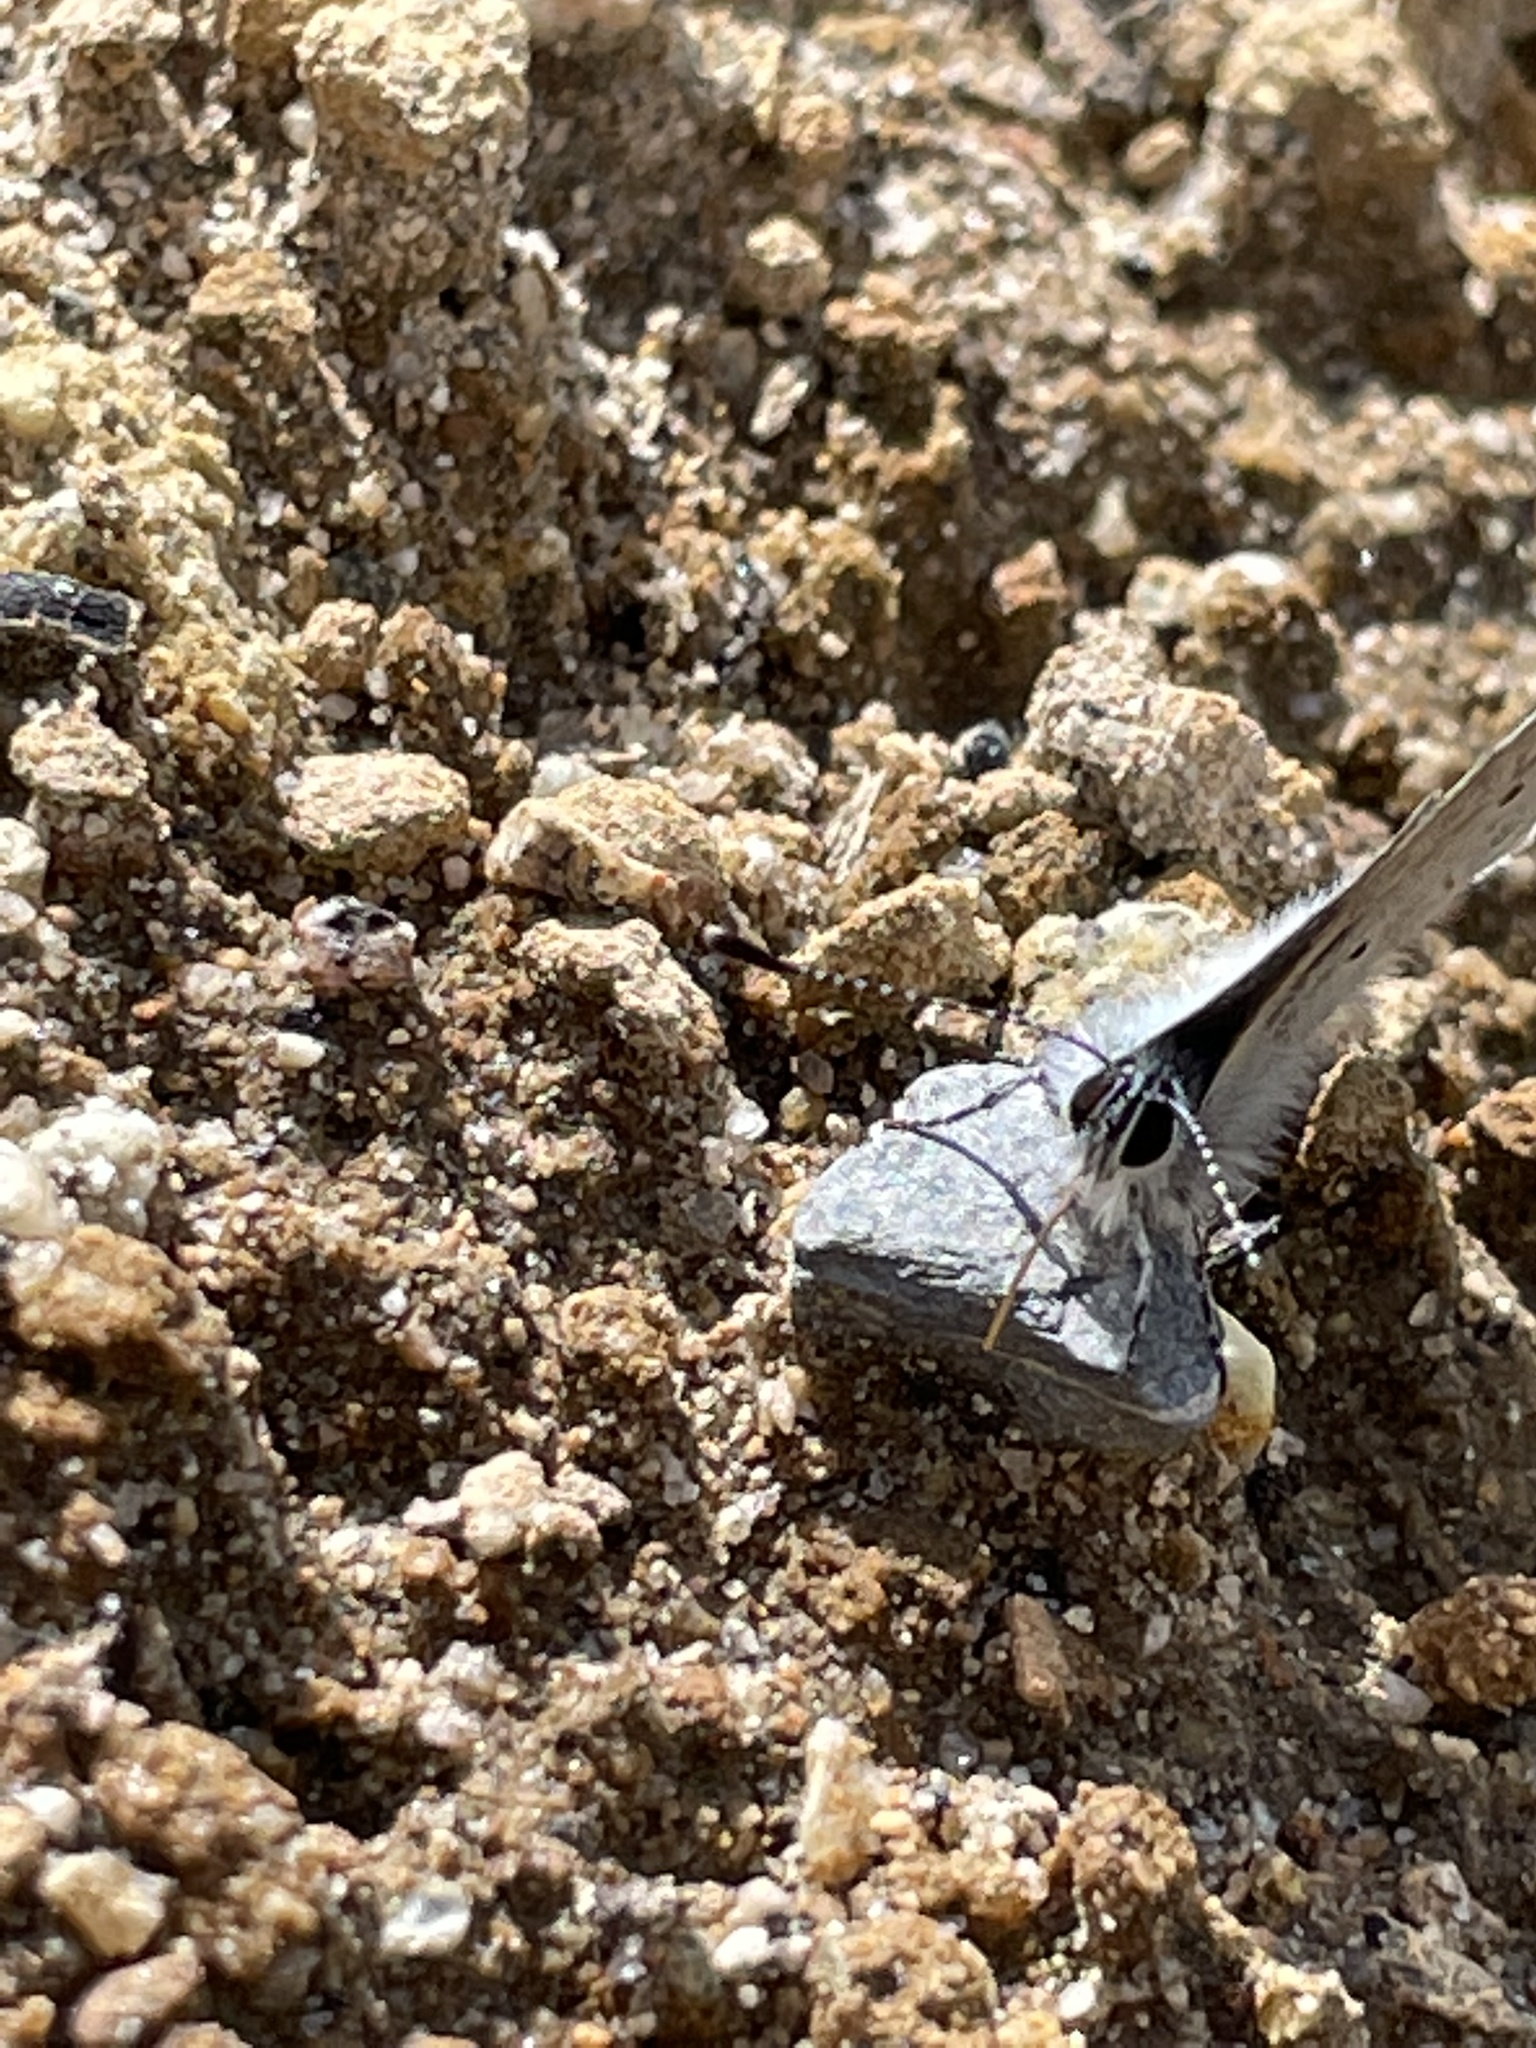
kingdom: Animalia
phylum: Arthropoda
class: Insecta
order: Lepidoptera
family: Lycaenidae
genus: Celastrina
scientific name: Celastrina ladon
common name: Spring azure
